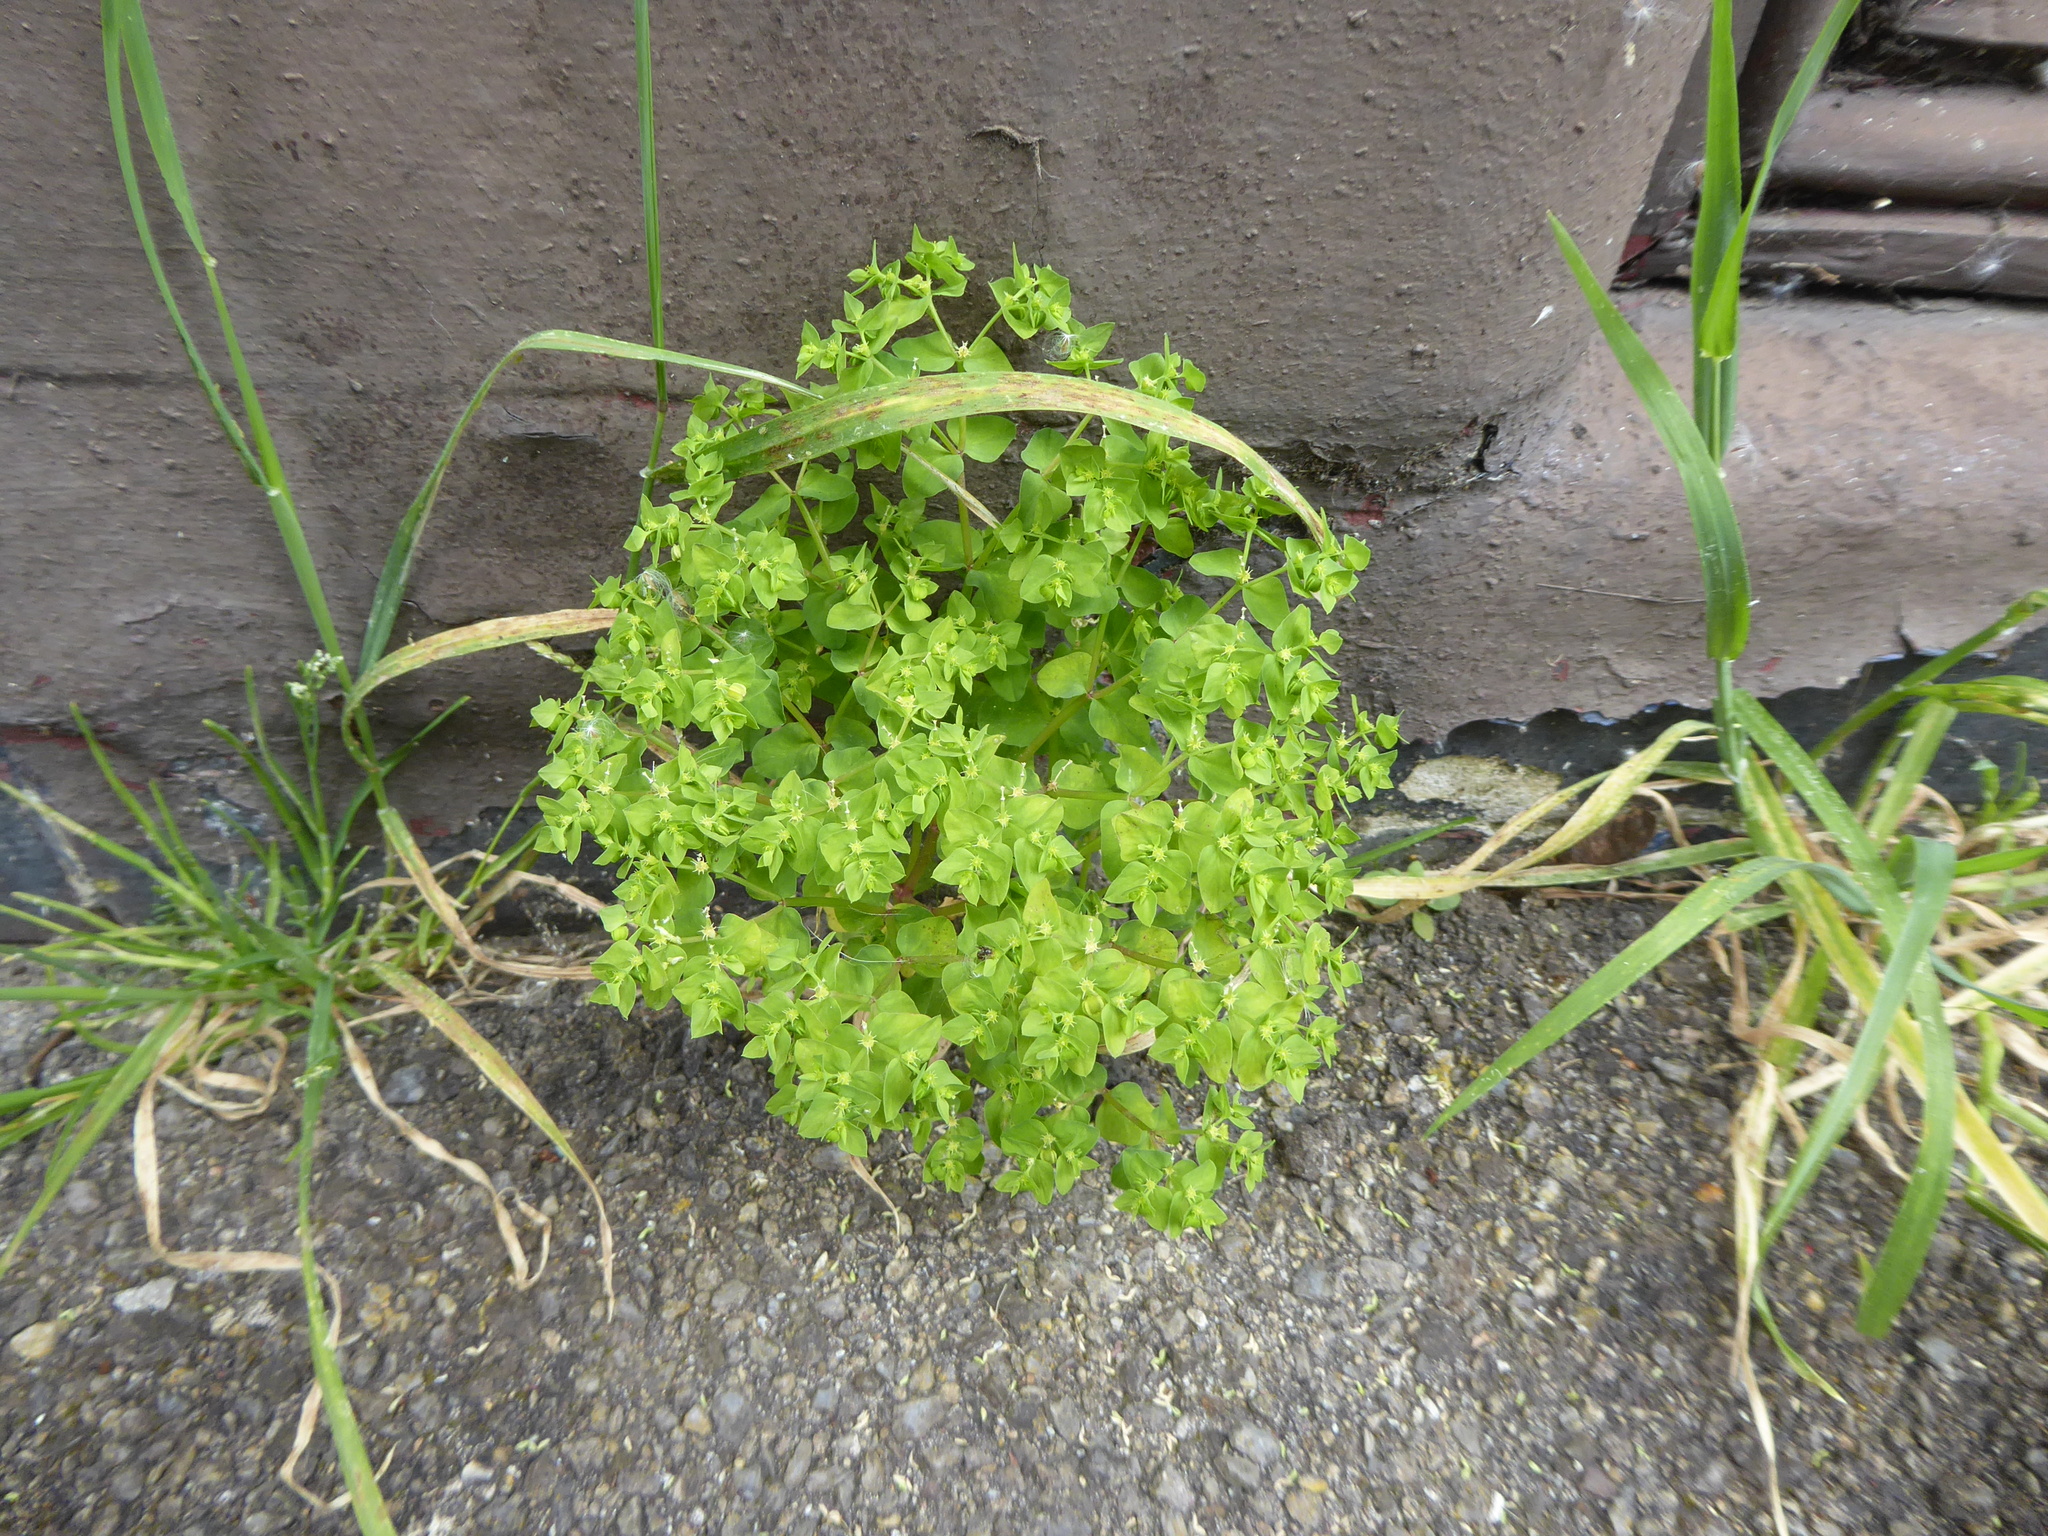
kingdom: Plantae
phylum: Tracheophyta
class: Magnoliopsida
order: Malpighiales
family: Euphorbiaceae
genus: Euphorbia
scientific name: Euphorbia peplus
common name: Petty spurge
